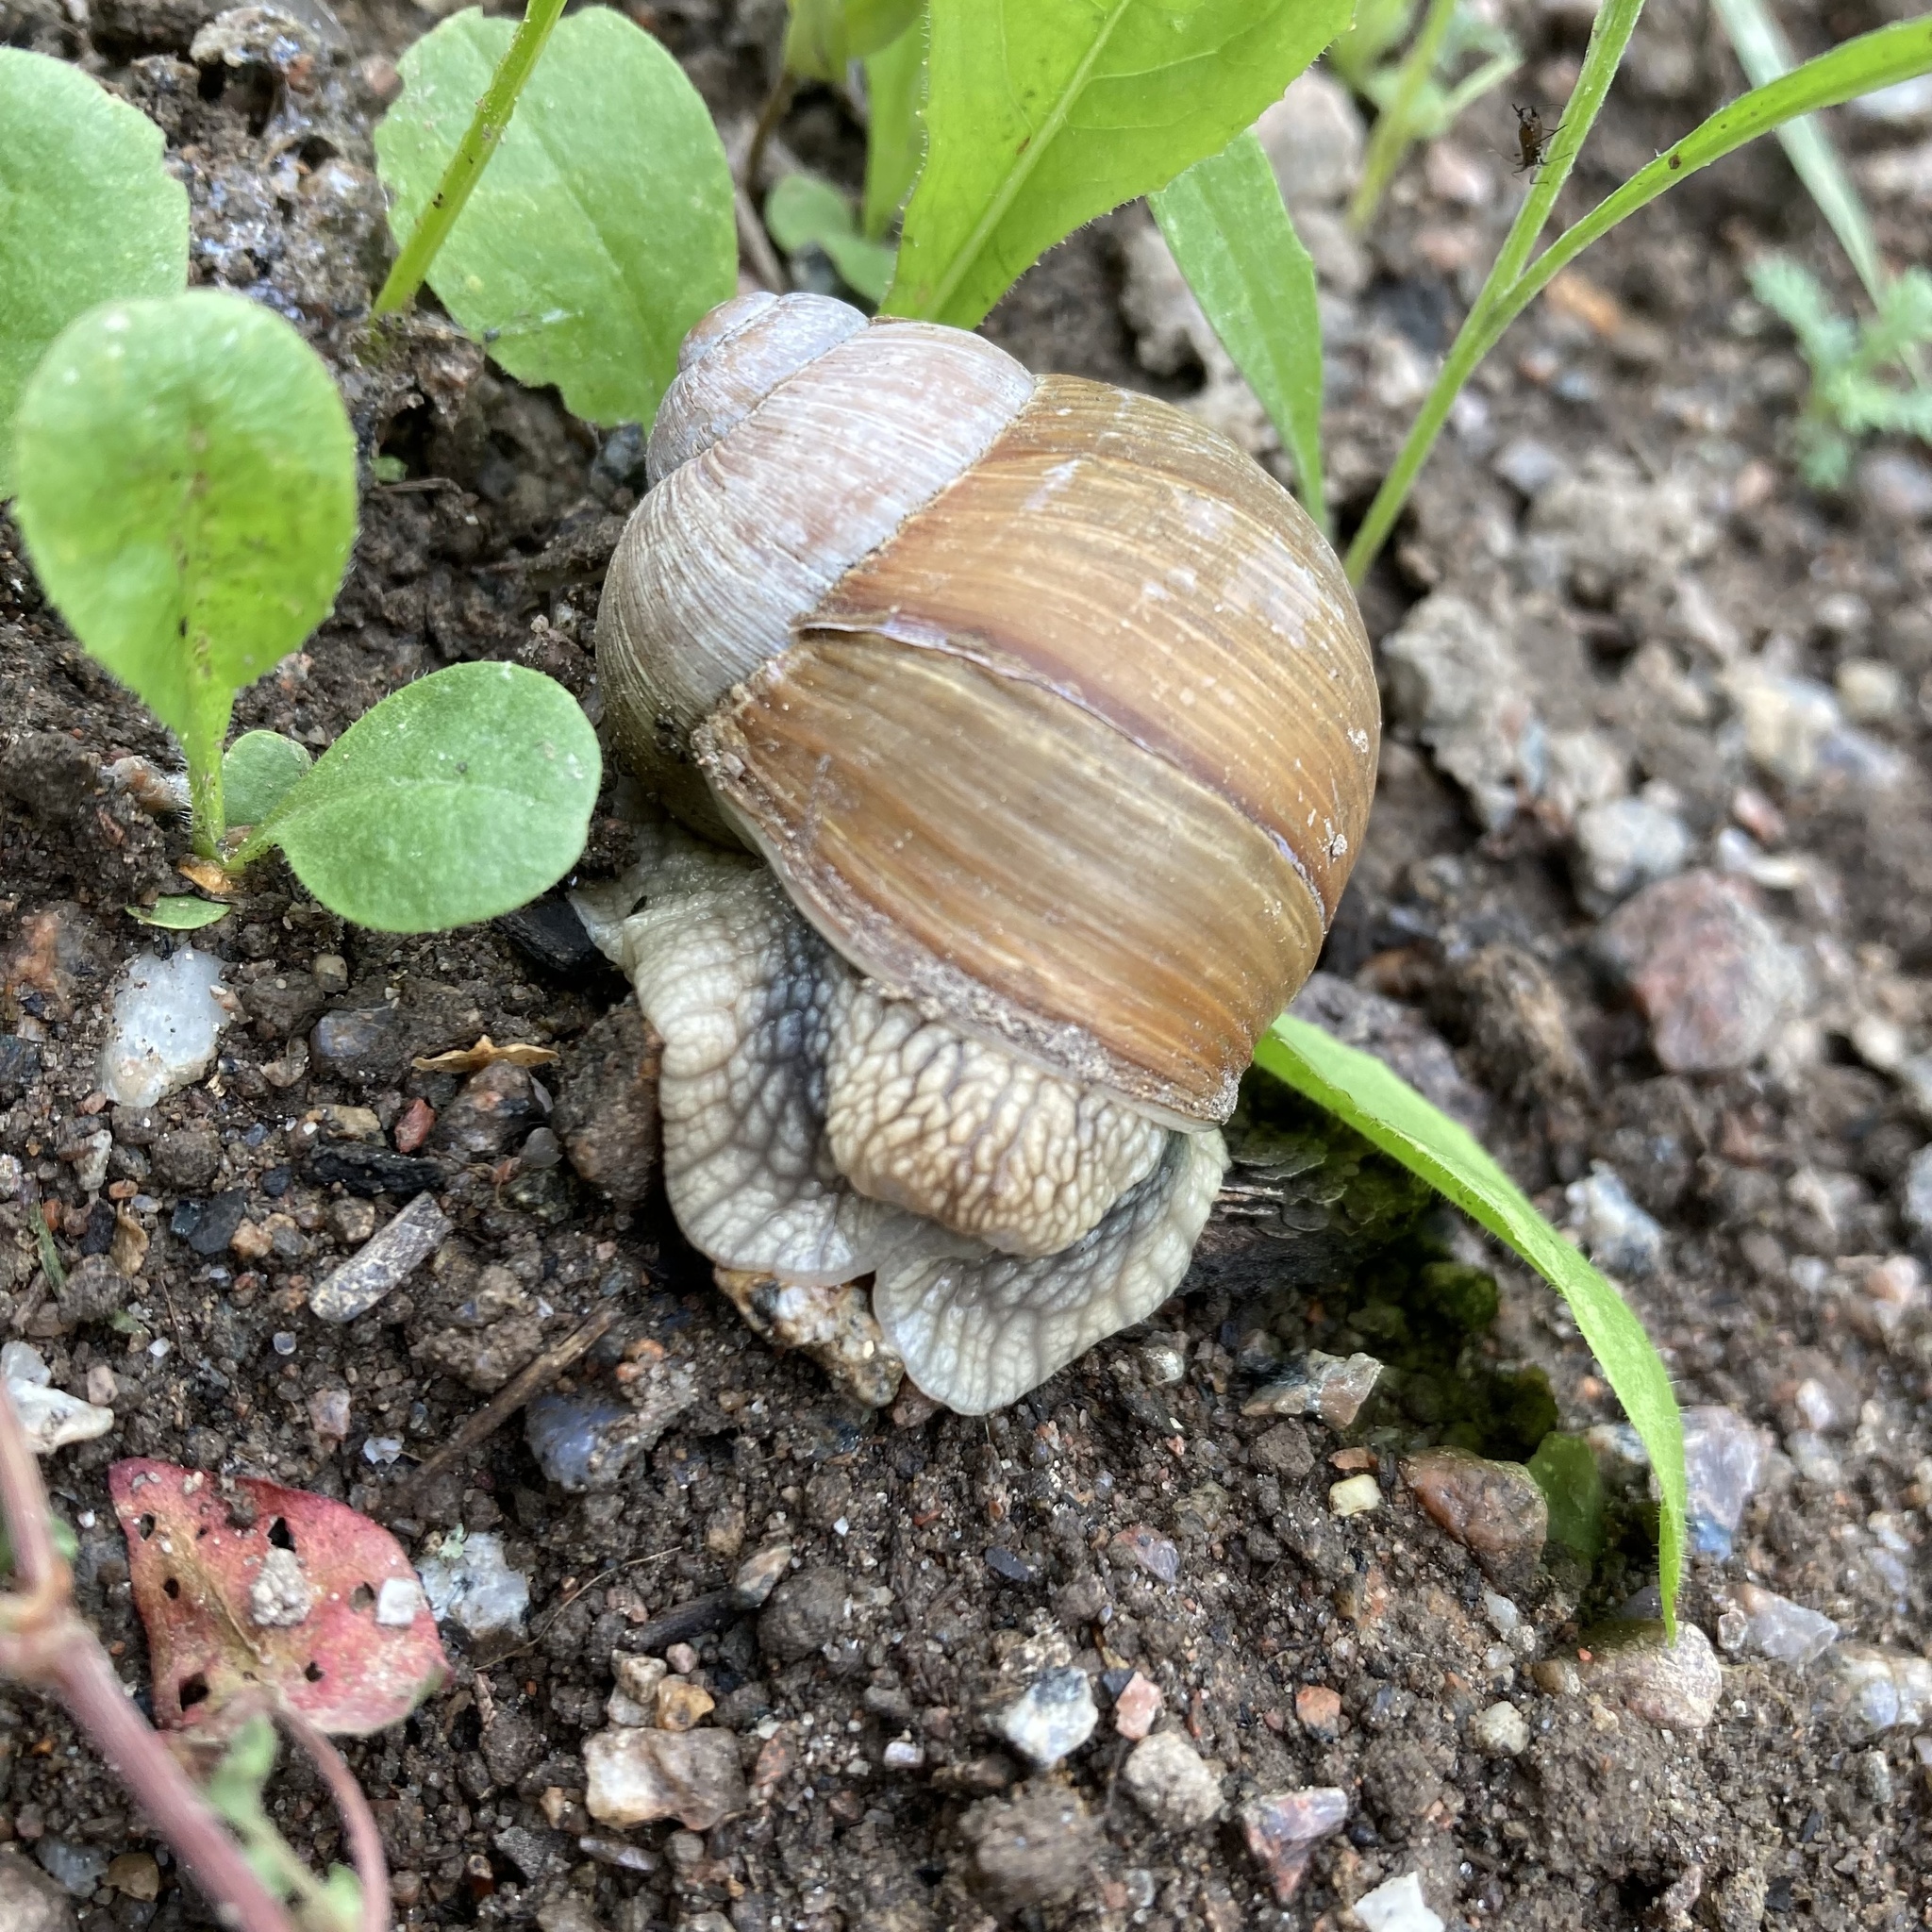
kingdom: Animalia
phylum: Mollusca
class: Gastropoda
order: Stylommatophora
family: Helicidae
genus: Helix
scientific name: Helix pomatia
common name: Roman snail
